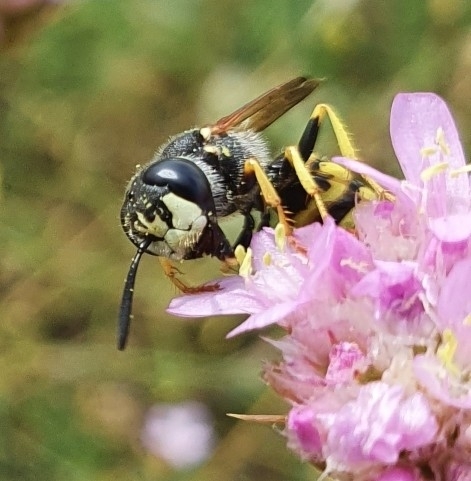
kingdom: Animalia
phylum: Arthropoda
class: Insecta
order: Hymenoptera
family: Crabronidae
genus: Philanthus
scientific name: Philanthus triangulum
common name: Bee wolf
